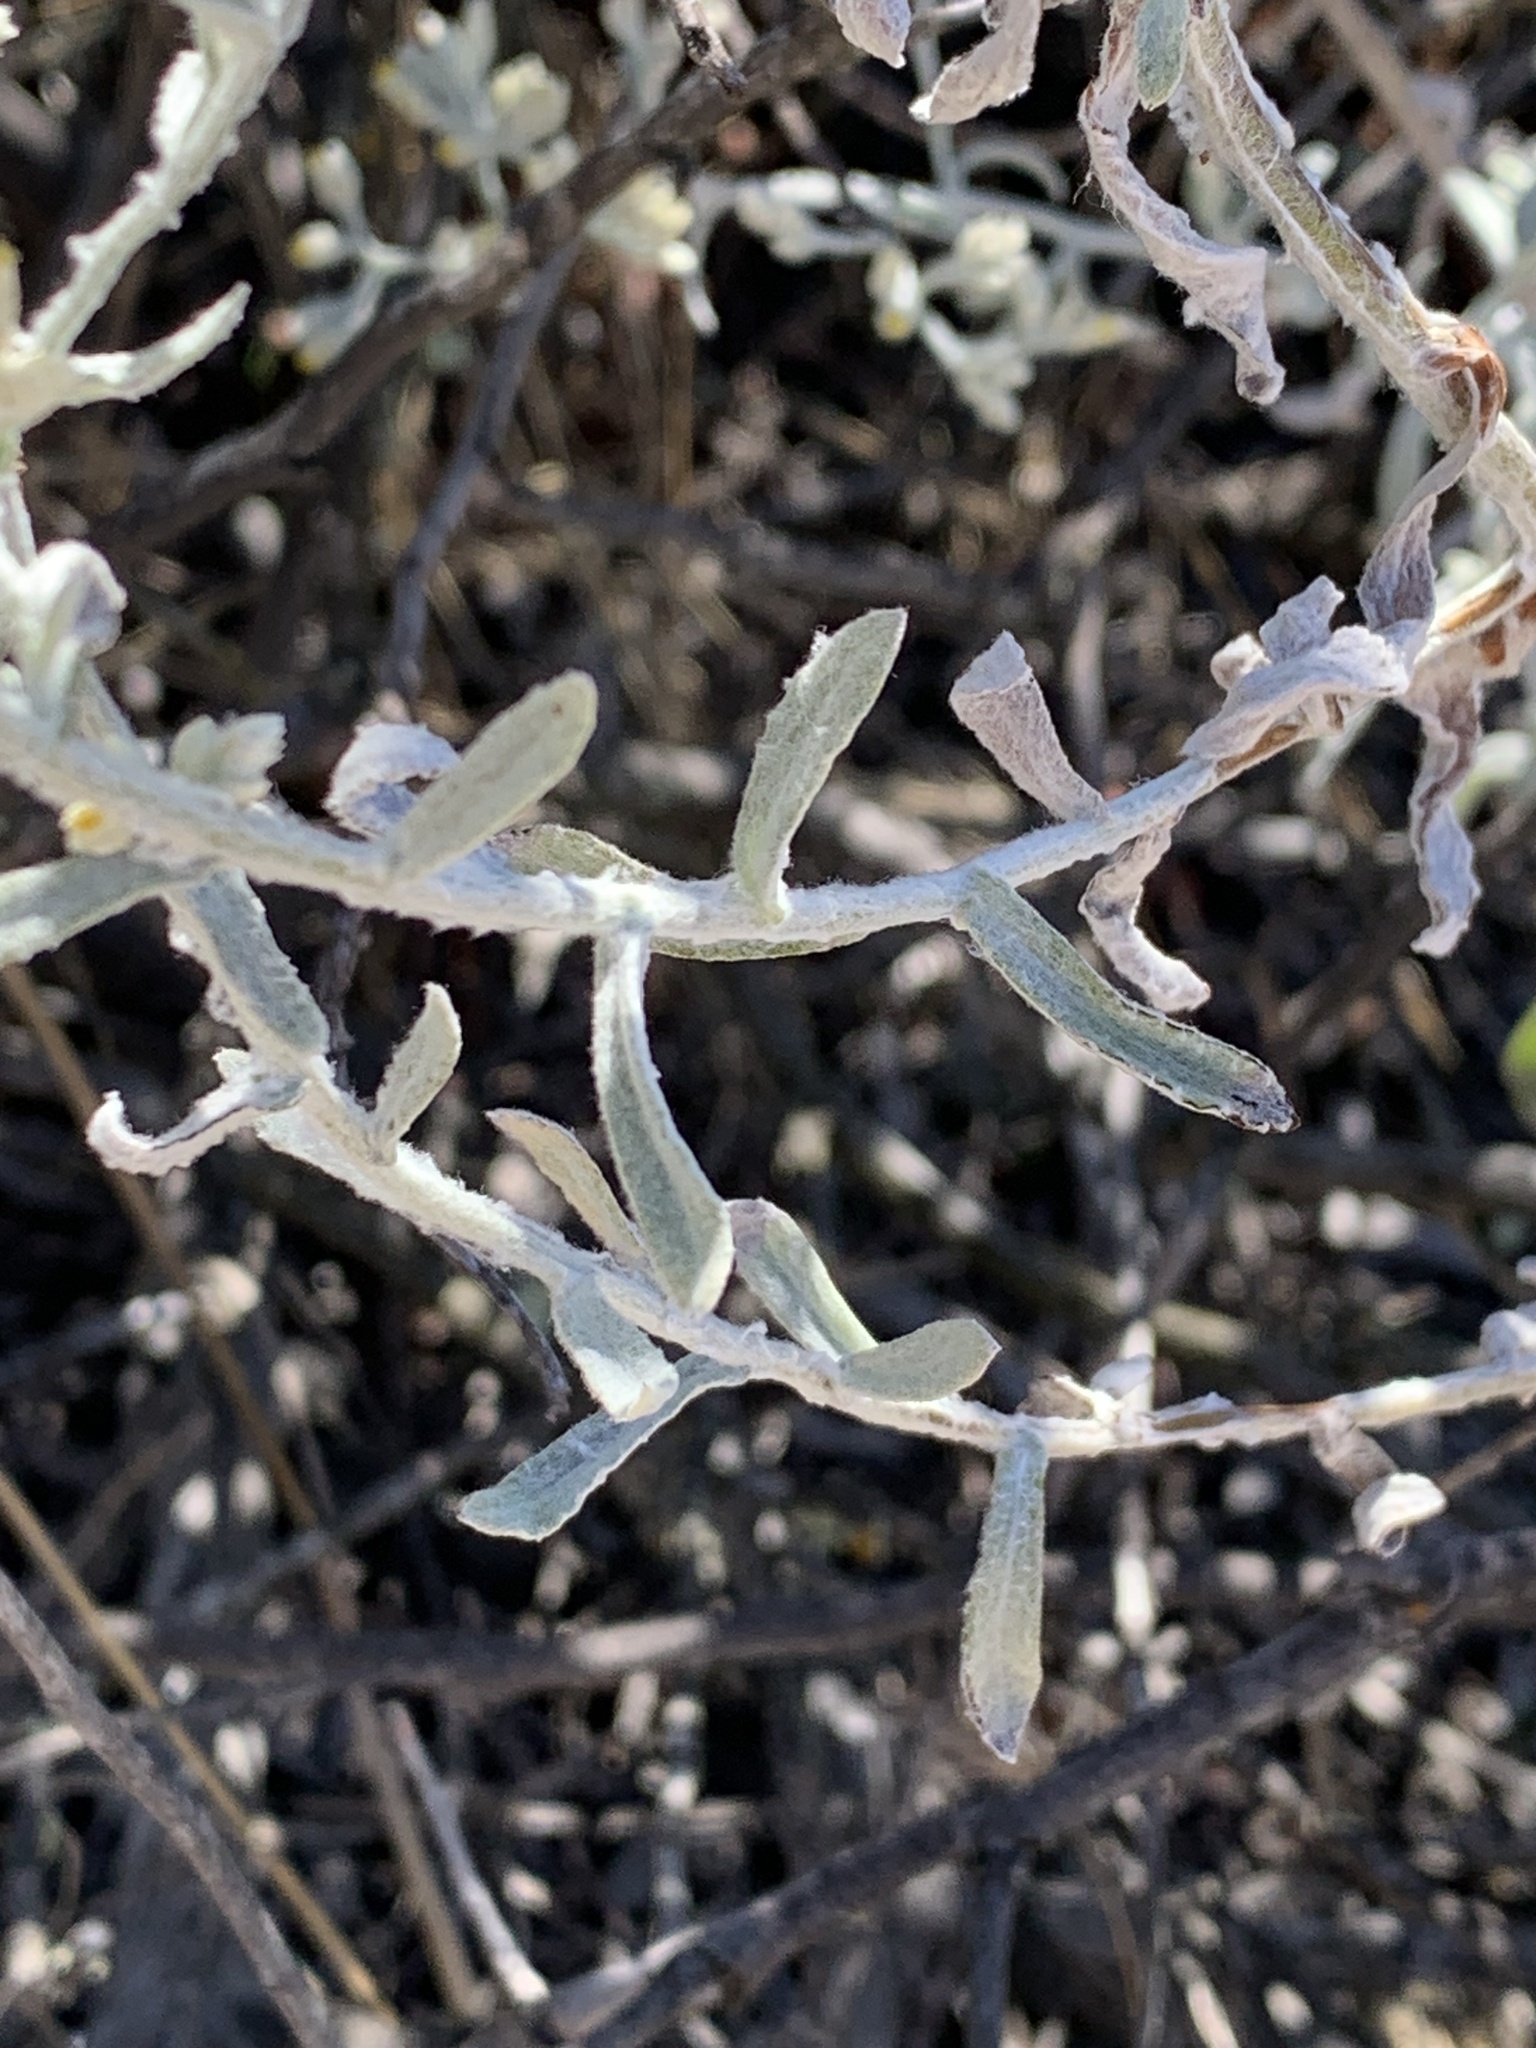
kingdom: Plantae
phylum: Tracheophyta
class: Magnoliopsida
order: Asterales
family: Asteraceae
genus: Pseudognaphalium
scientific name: Pseudognaphalium beneolens
